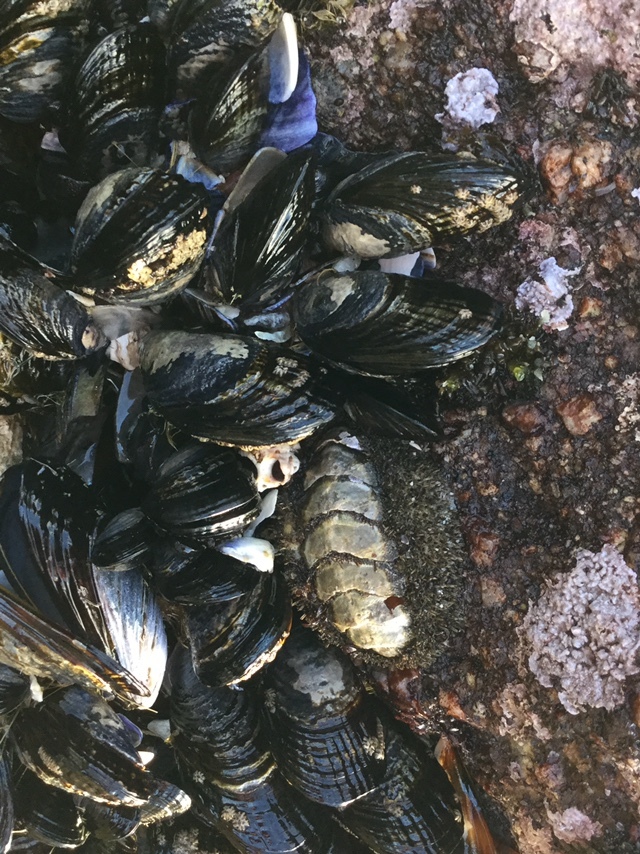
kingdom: Animalia
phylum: Mollusca
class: Polyplacophora
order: Chitonida
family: Mopaliidae
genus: Mopalia
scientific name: Mopalia muscosa
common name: Mossy chiton
